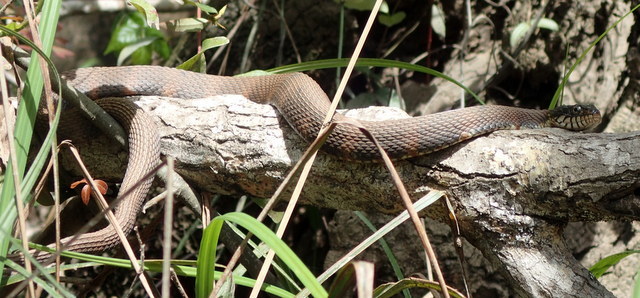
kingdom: Animalia
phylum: Chordata
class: Squamata
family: Colubridae
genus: Nerodia
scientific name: Nerodia fasciata
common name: Southern water snake
